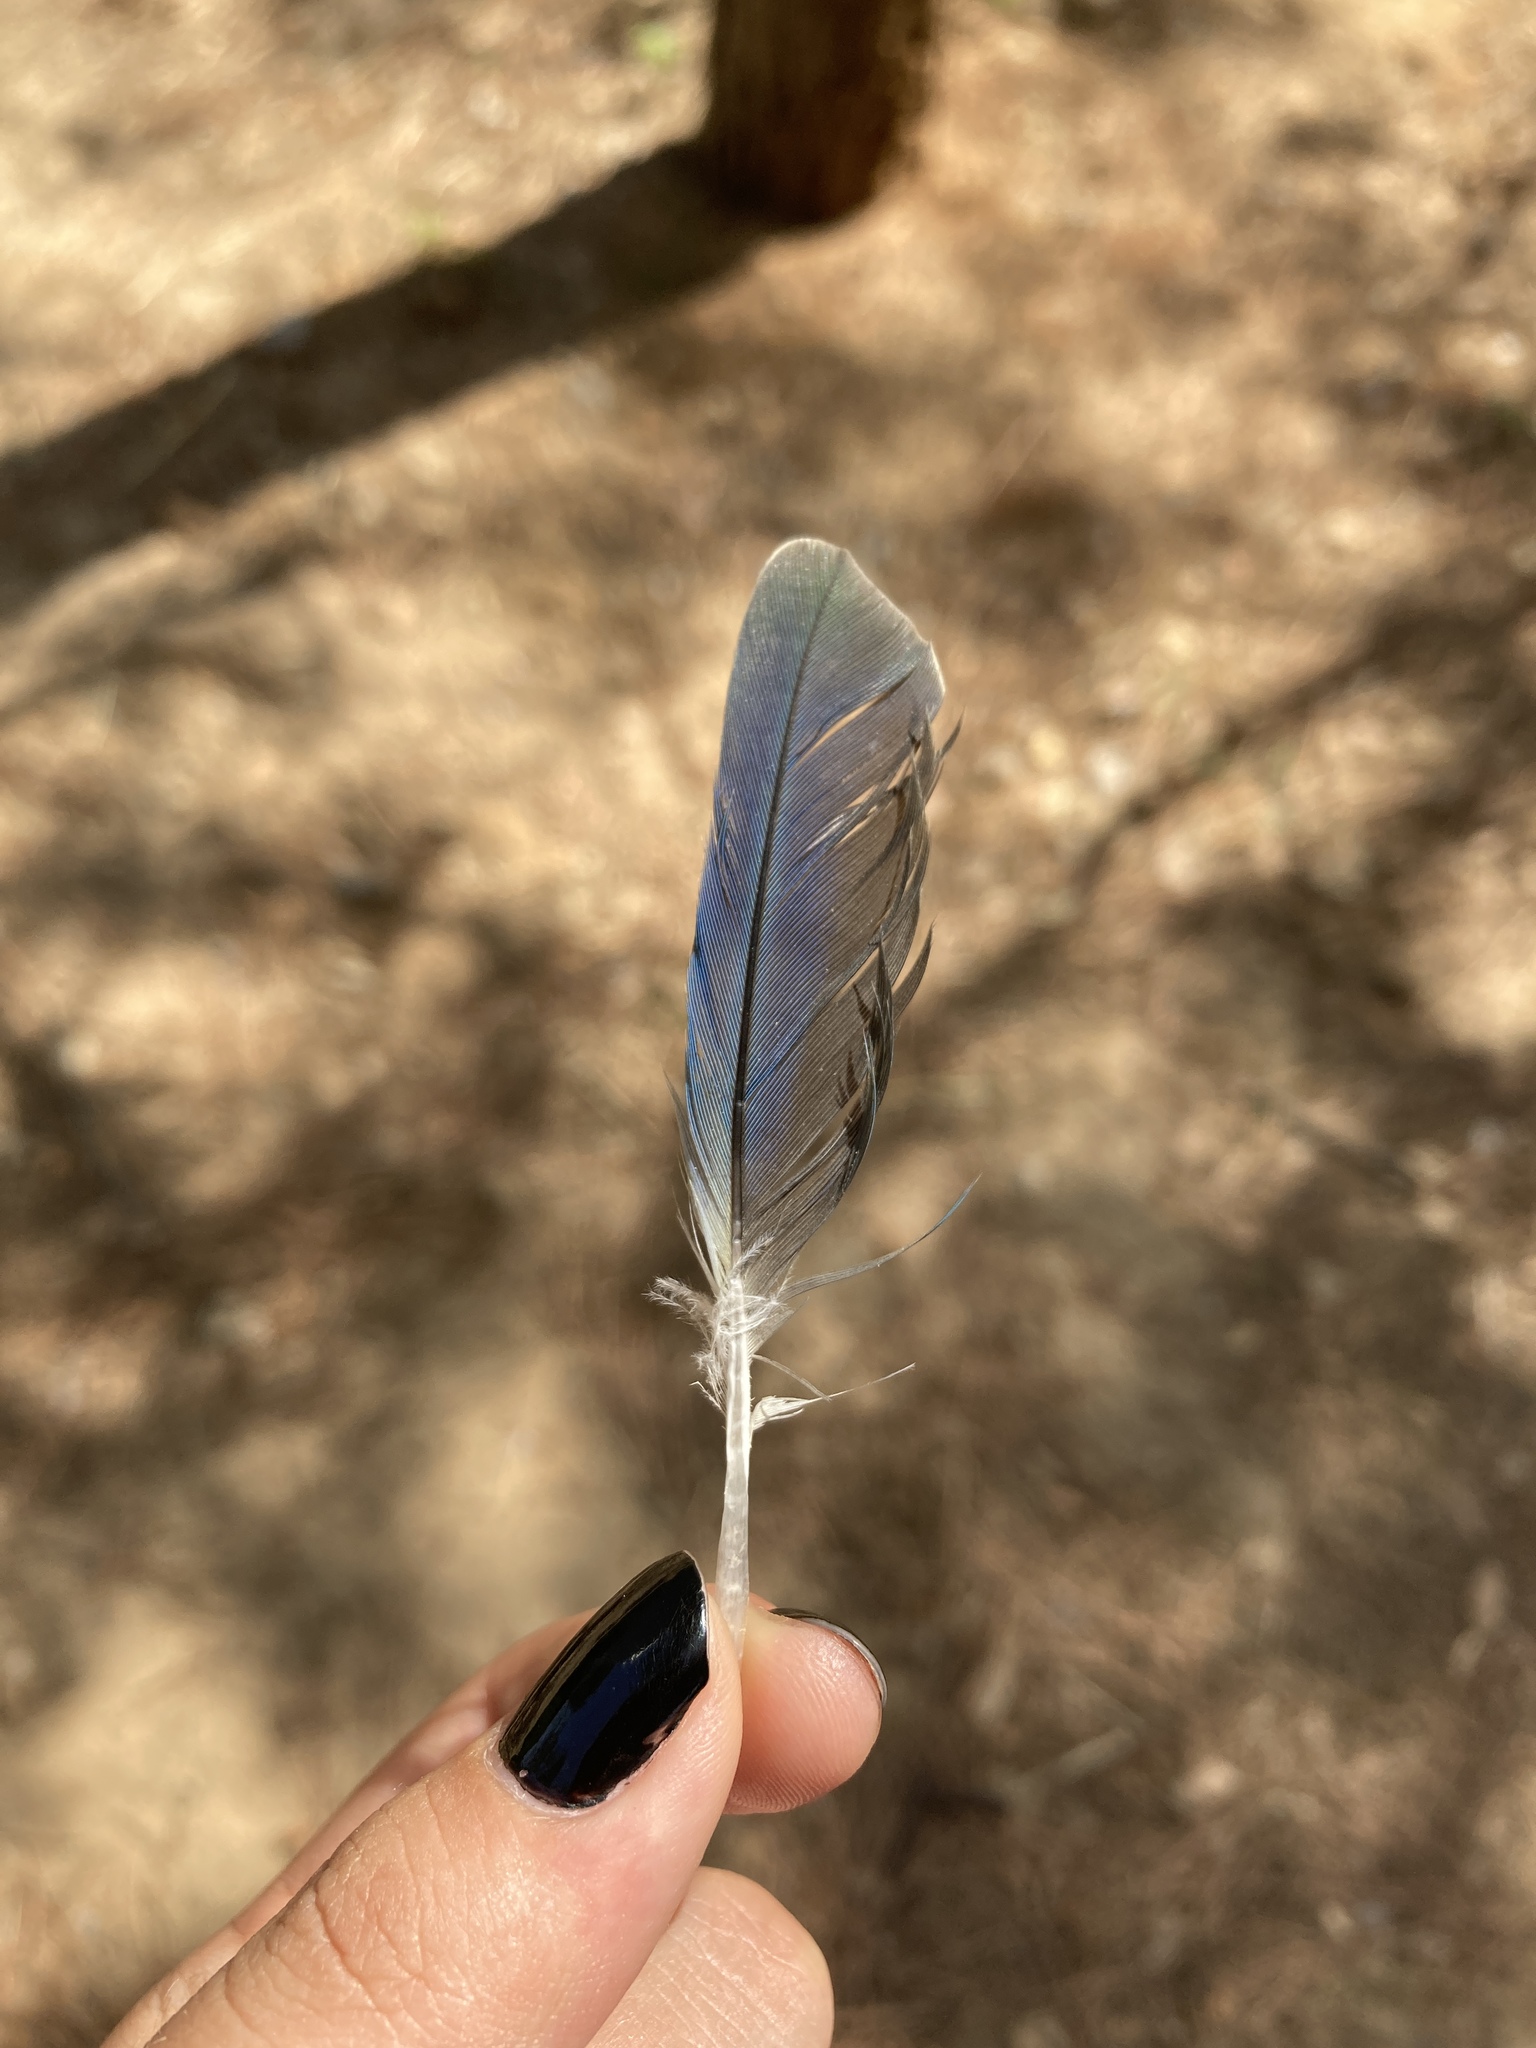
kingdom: Animalia
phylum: Chordata
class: Aves
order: Psittaciformes
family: Psittacidae
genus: Myiopsitta
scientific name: Myiopsitta monachus
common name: Monk parakeet
